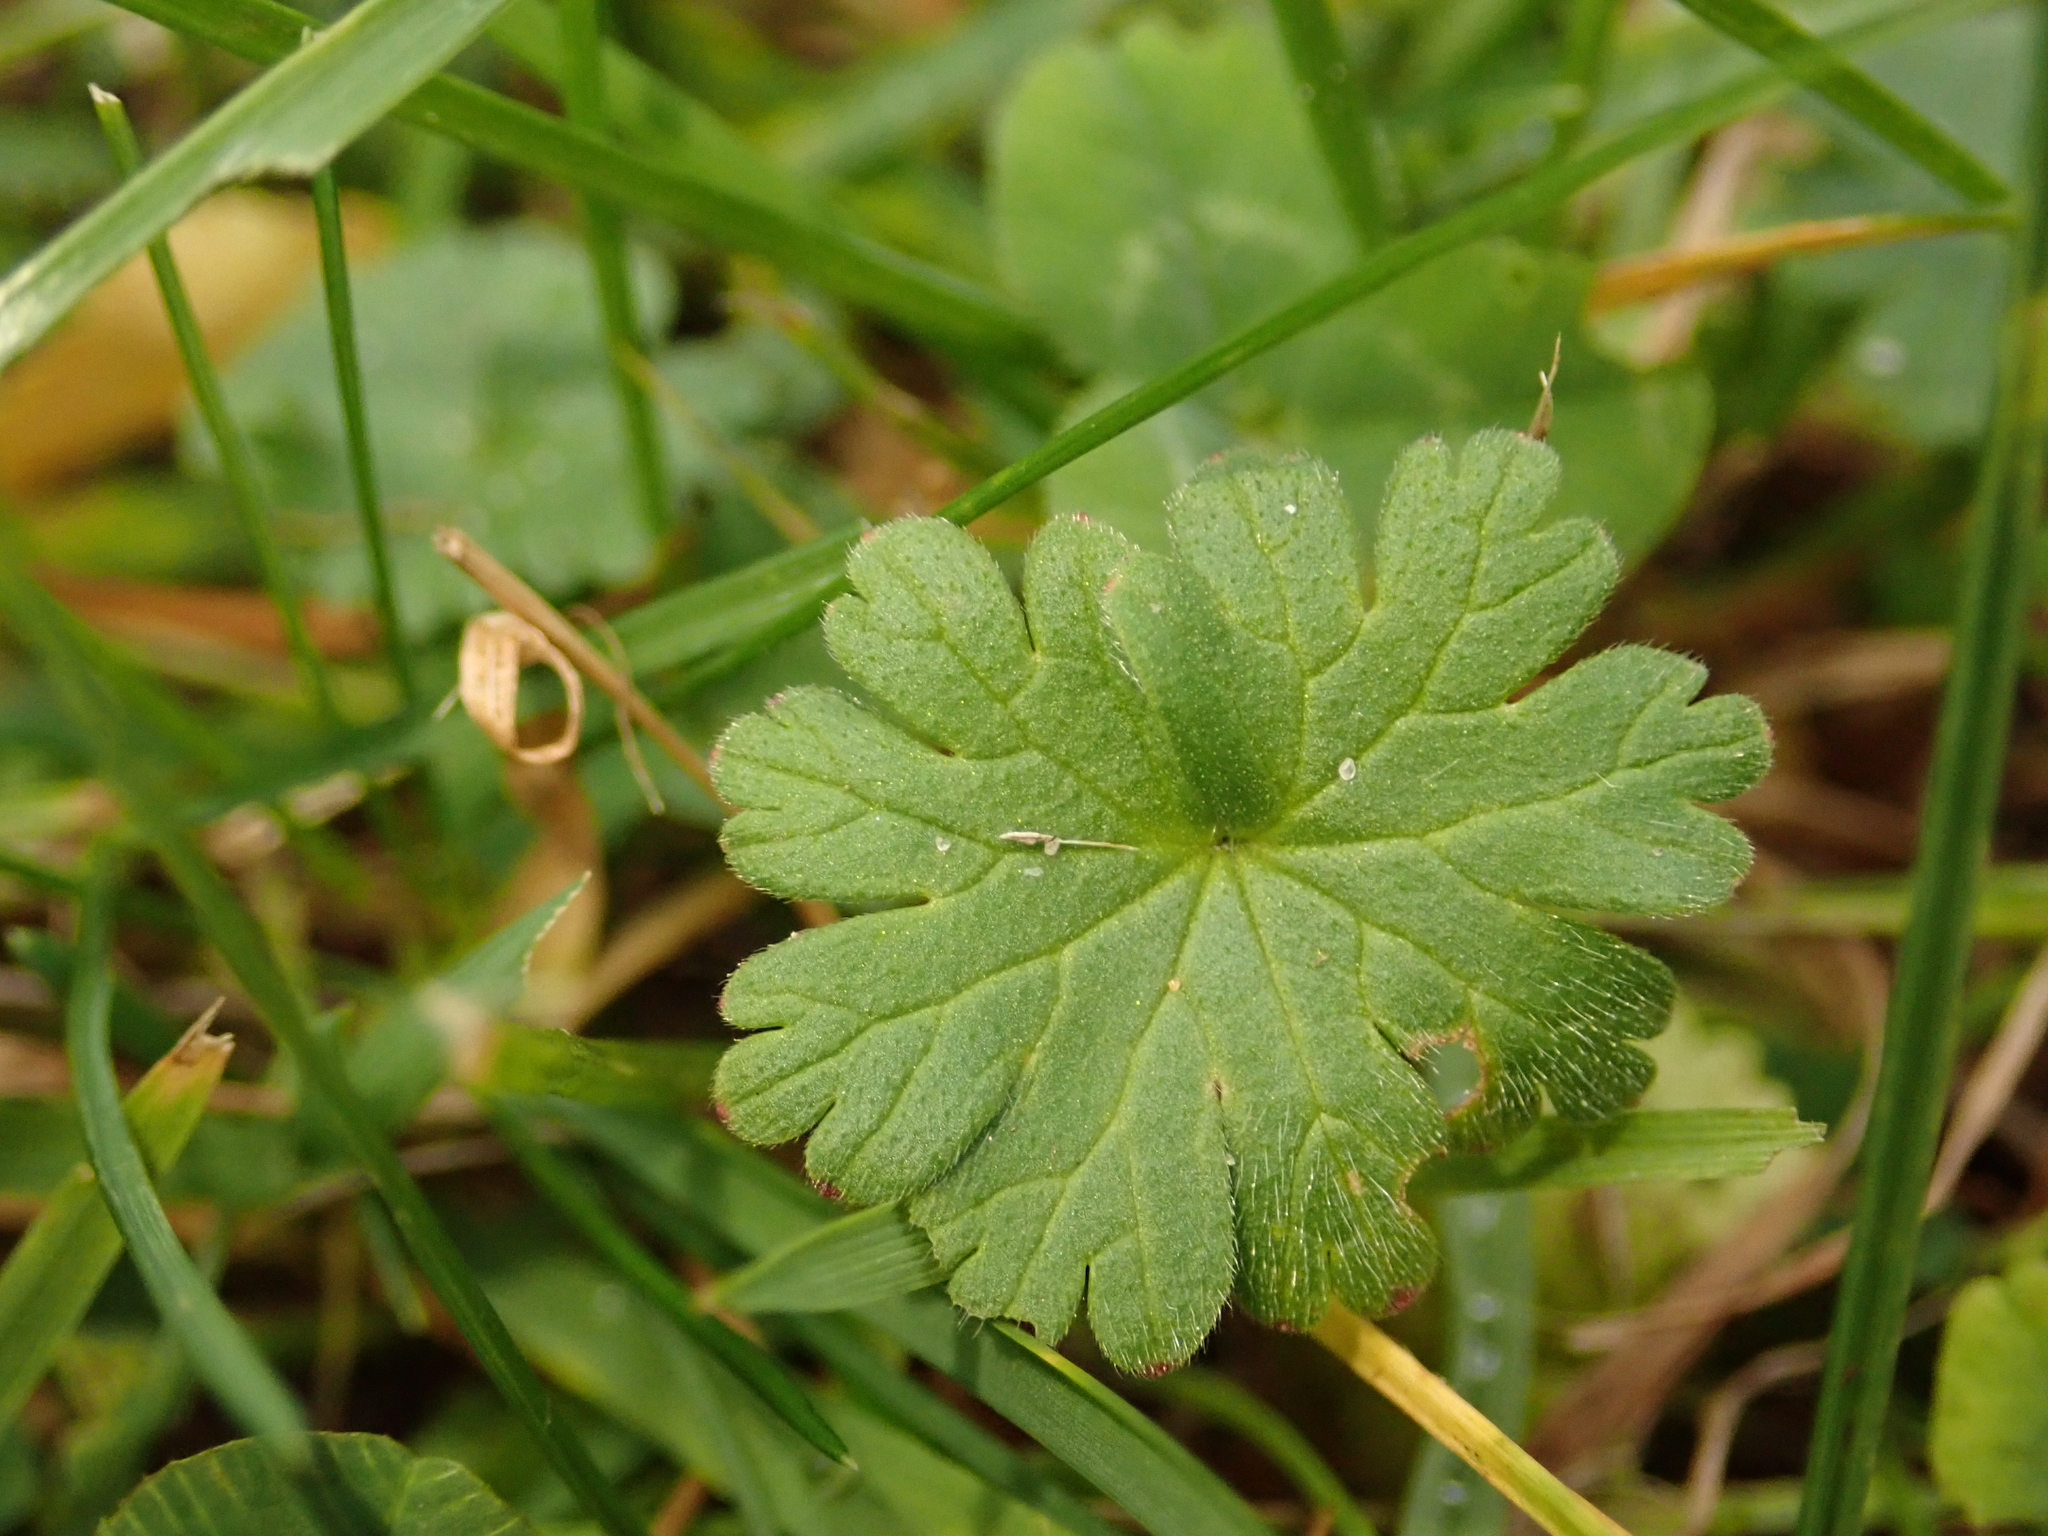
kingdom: Plantae
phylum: Tracheophyta
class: Magnoliopsida
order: Geraniales
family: Geraniaceae
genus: Geranium
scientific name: Geranium molle
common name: Dove's-foot crane's-bill
